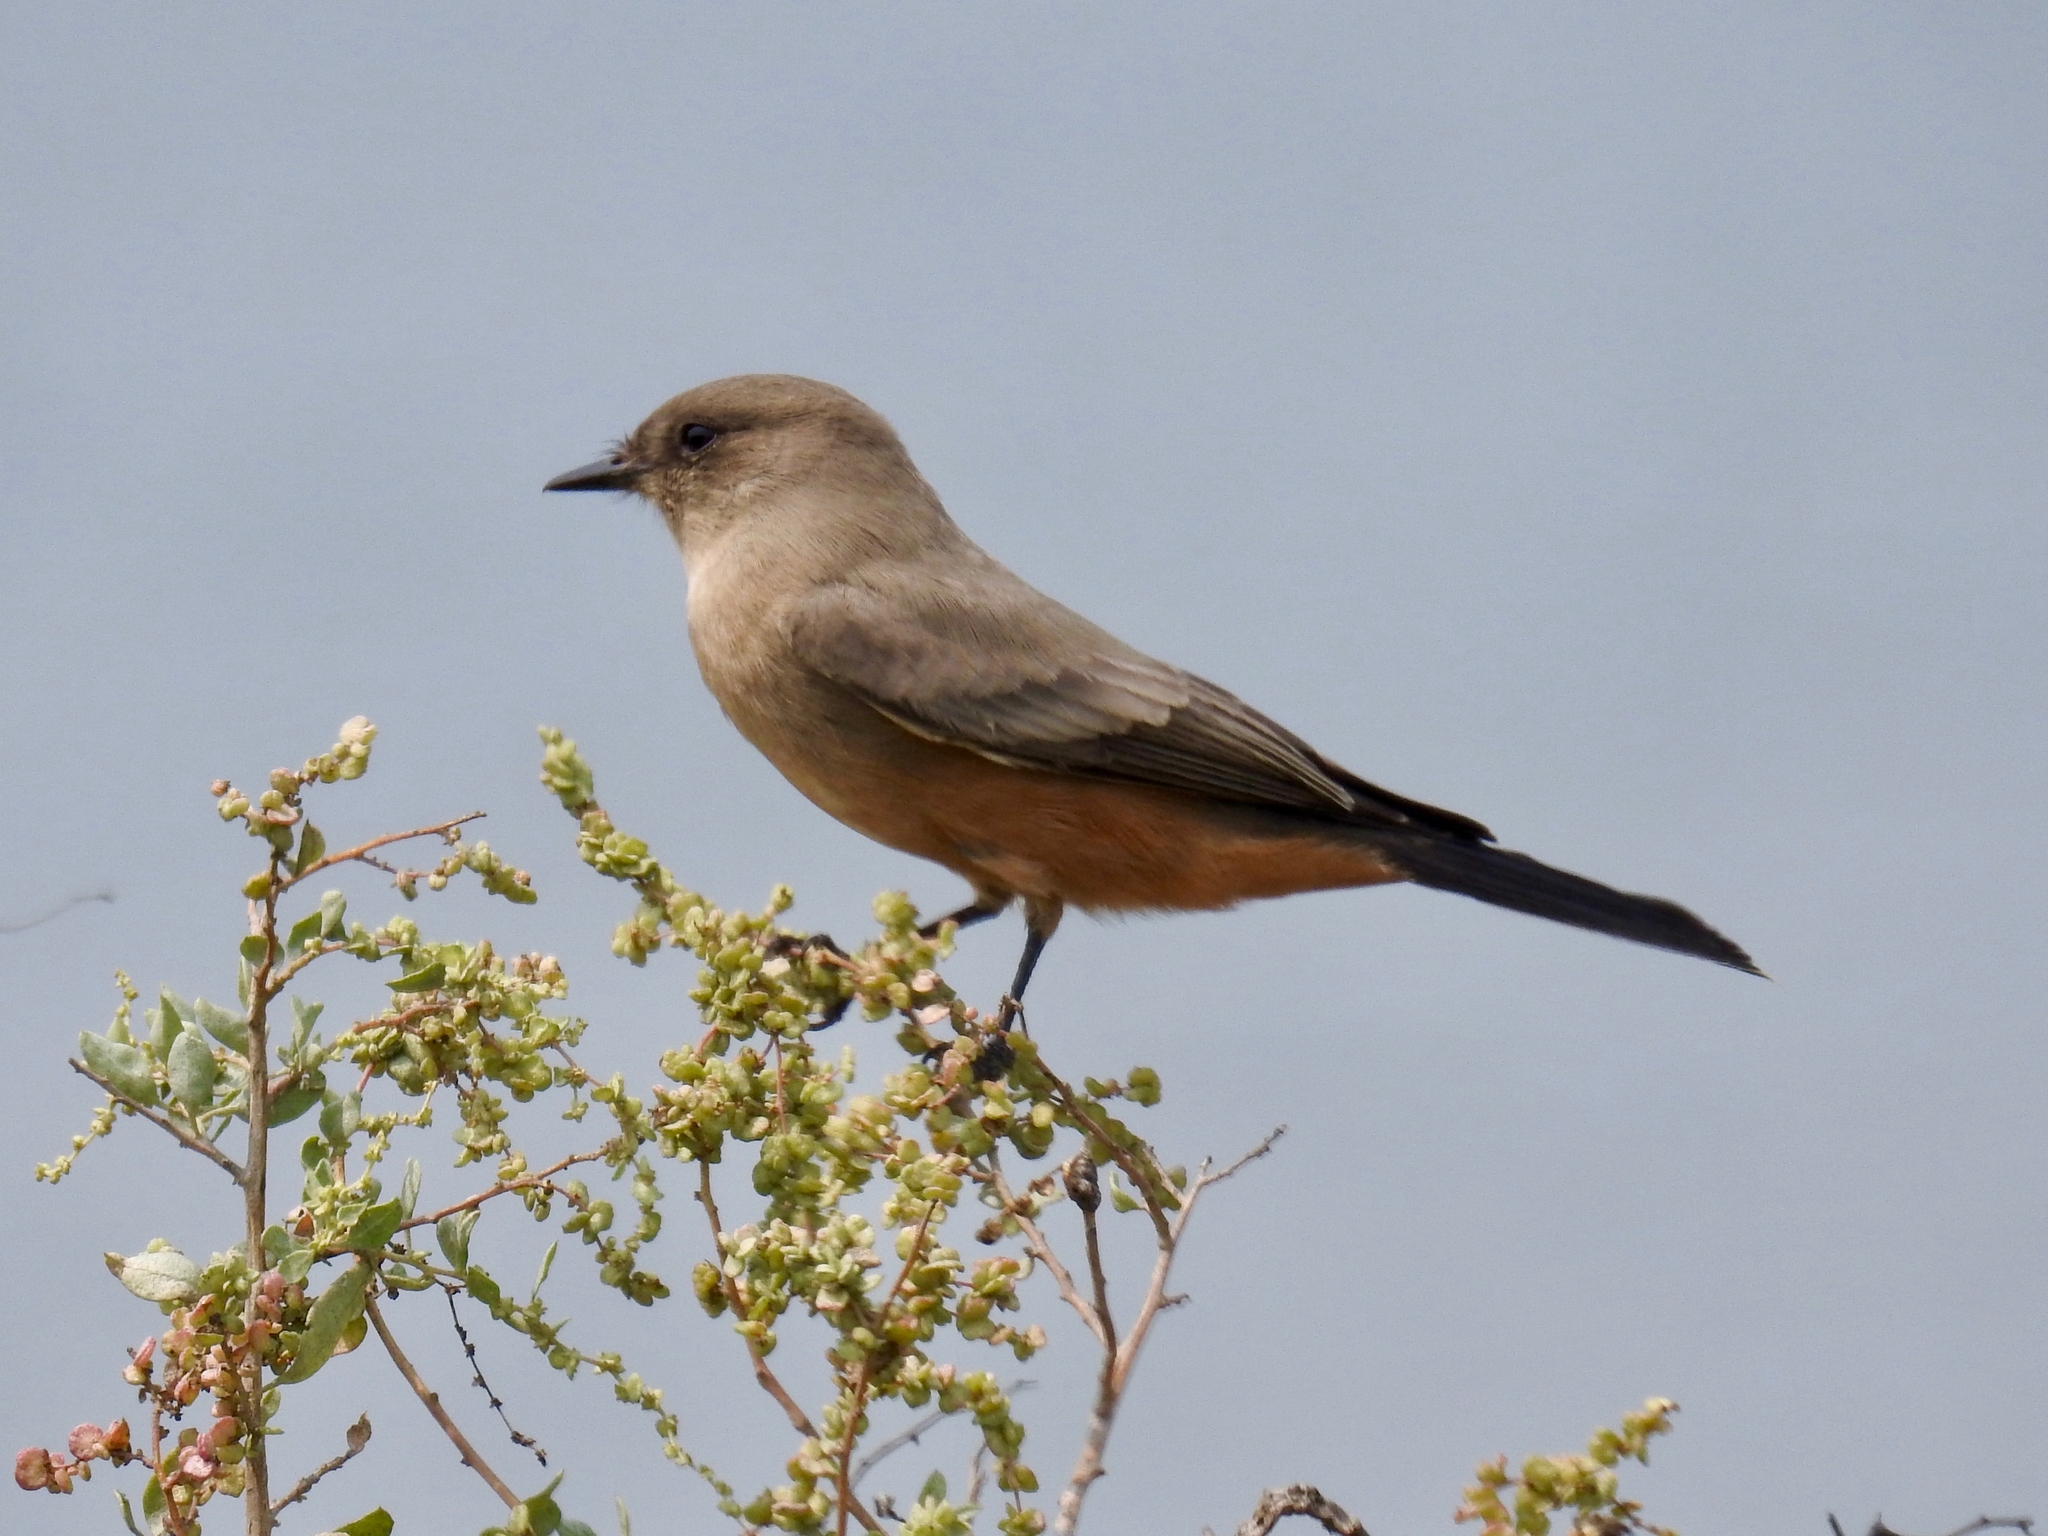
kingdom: Animalia
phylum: Chordata
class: Aves
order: Passeriformes
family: Tyrannidae
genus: Sayornis
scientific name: Sayornis saya
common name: Say's phoebe
